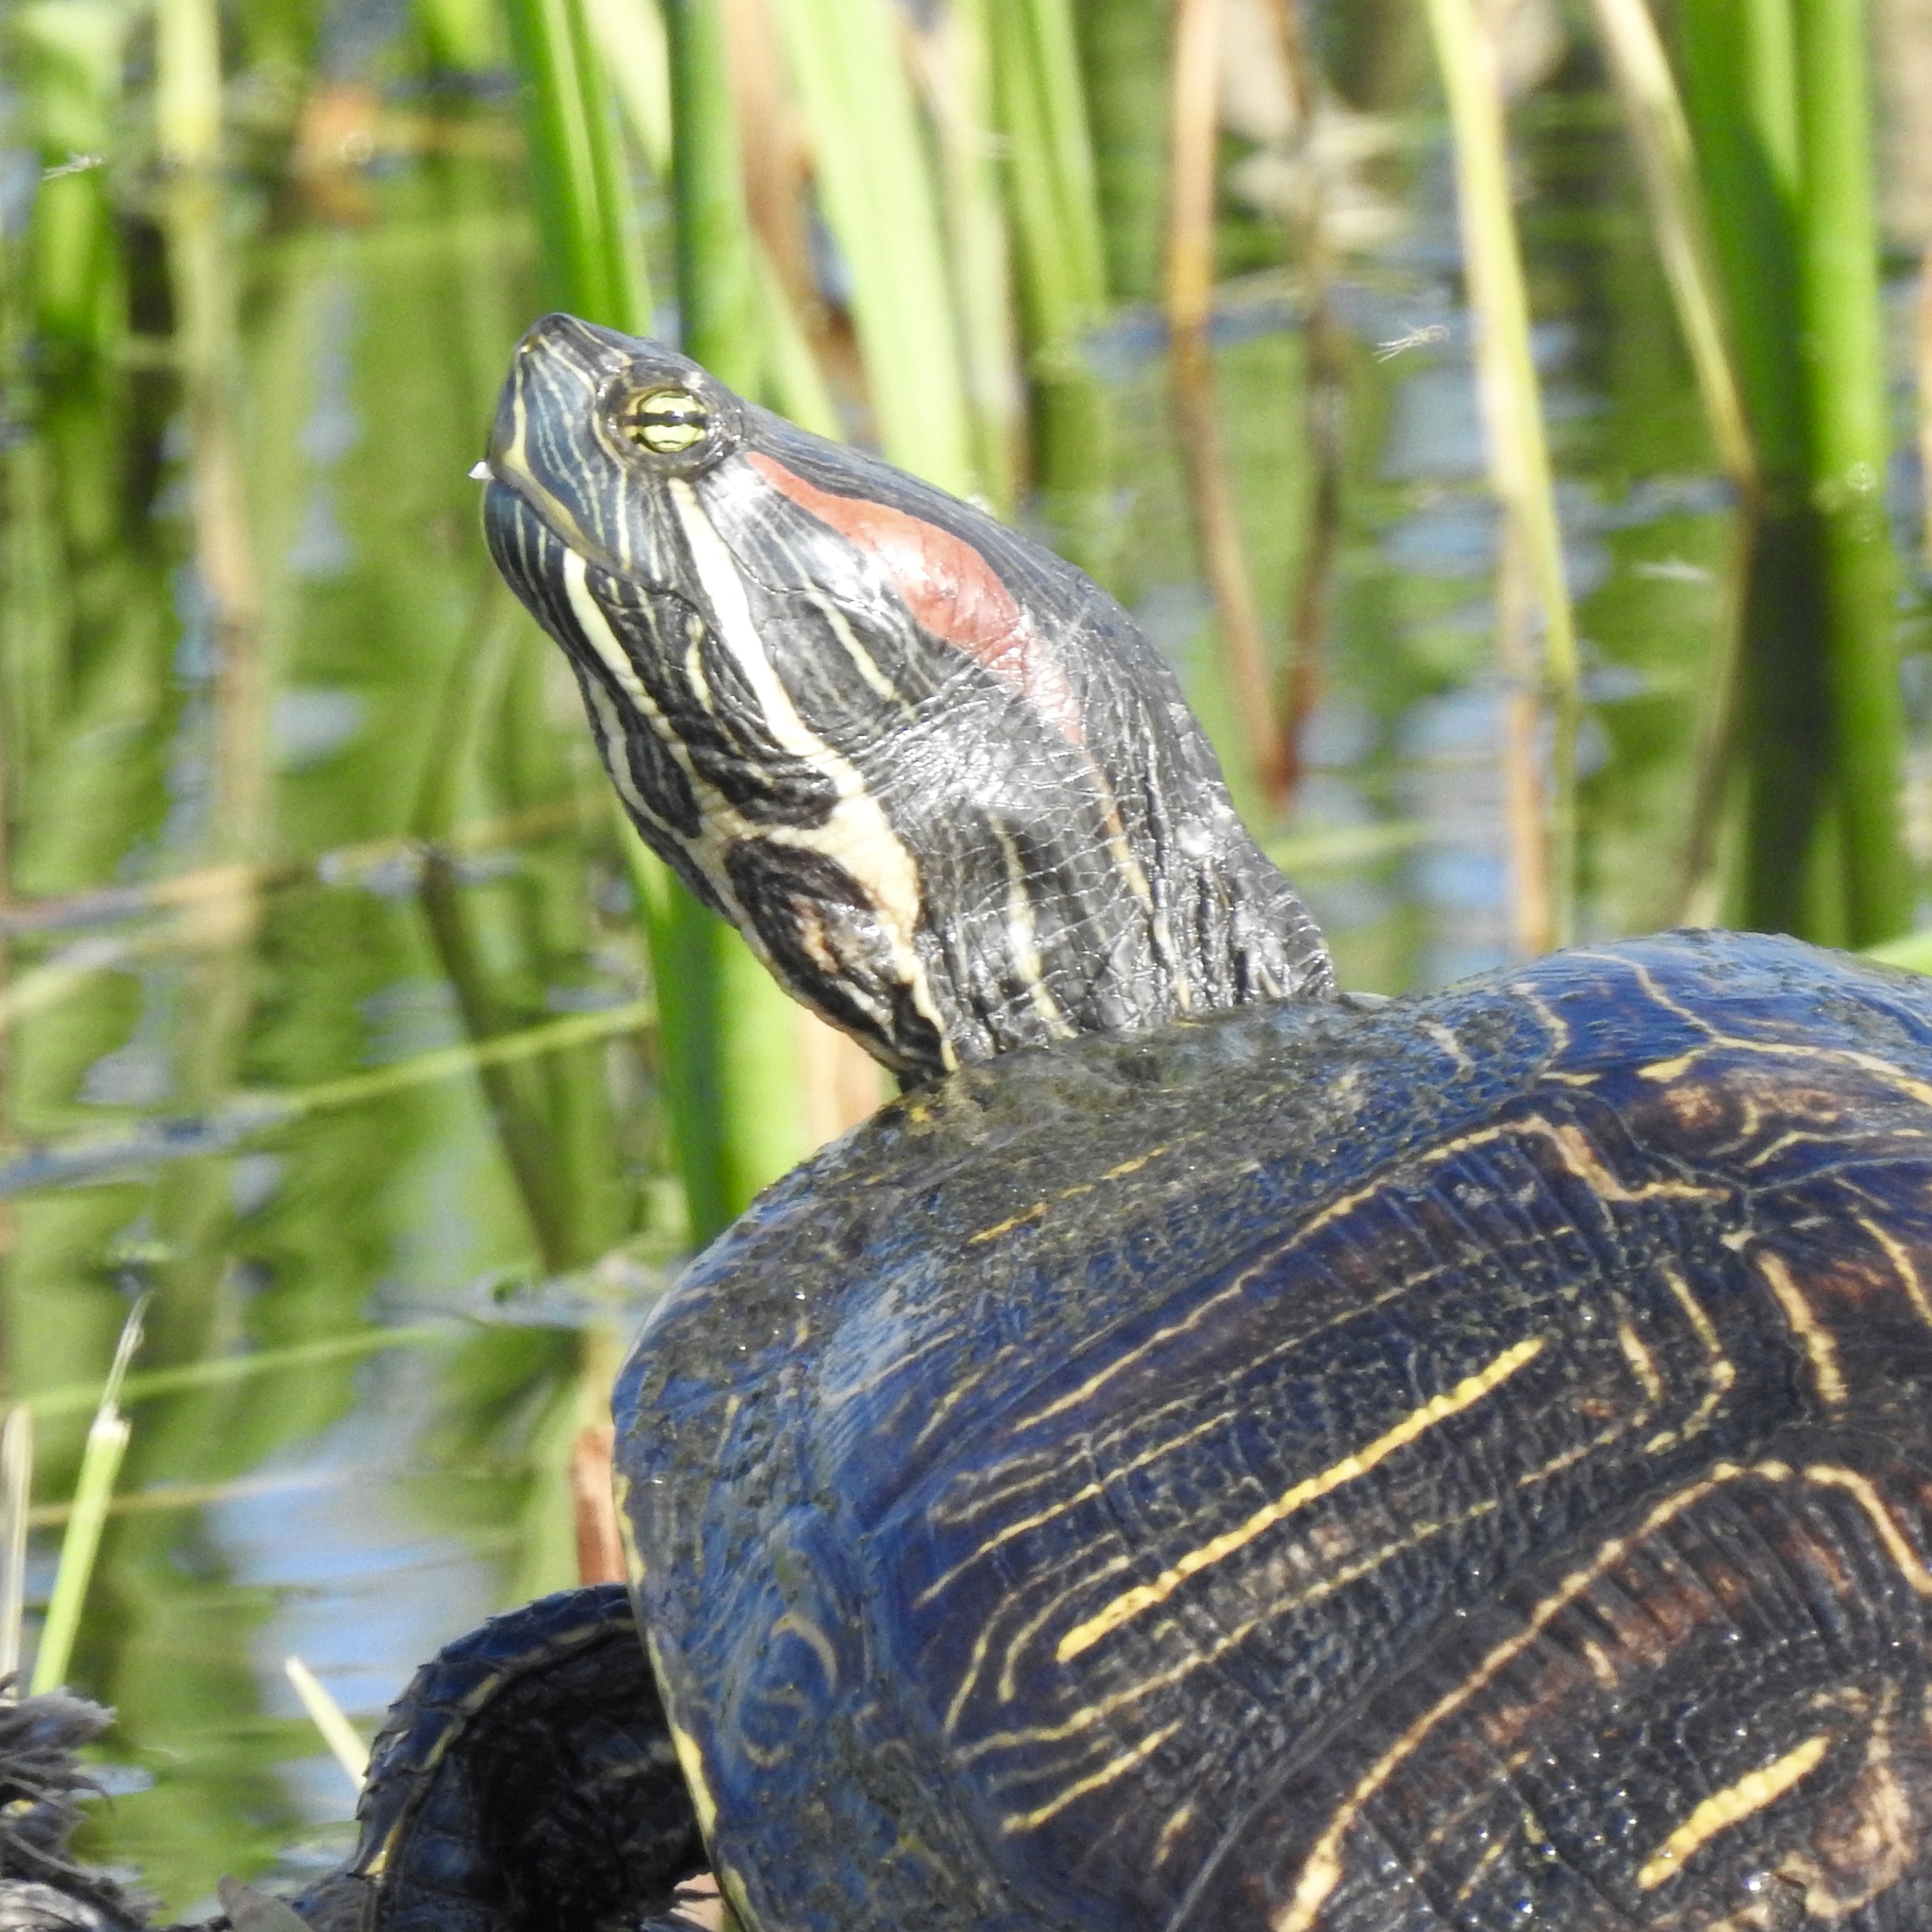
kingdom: Animalia
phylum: Chordata
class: Testudines
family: Emydidae
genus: Trachemys
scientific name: Trachemys scripta
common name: Slider
